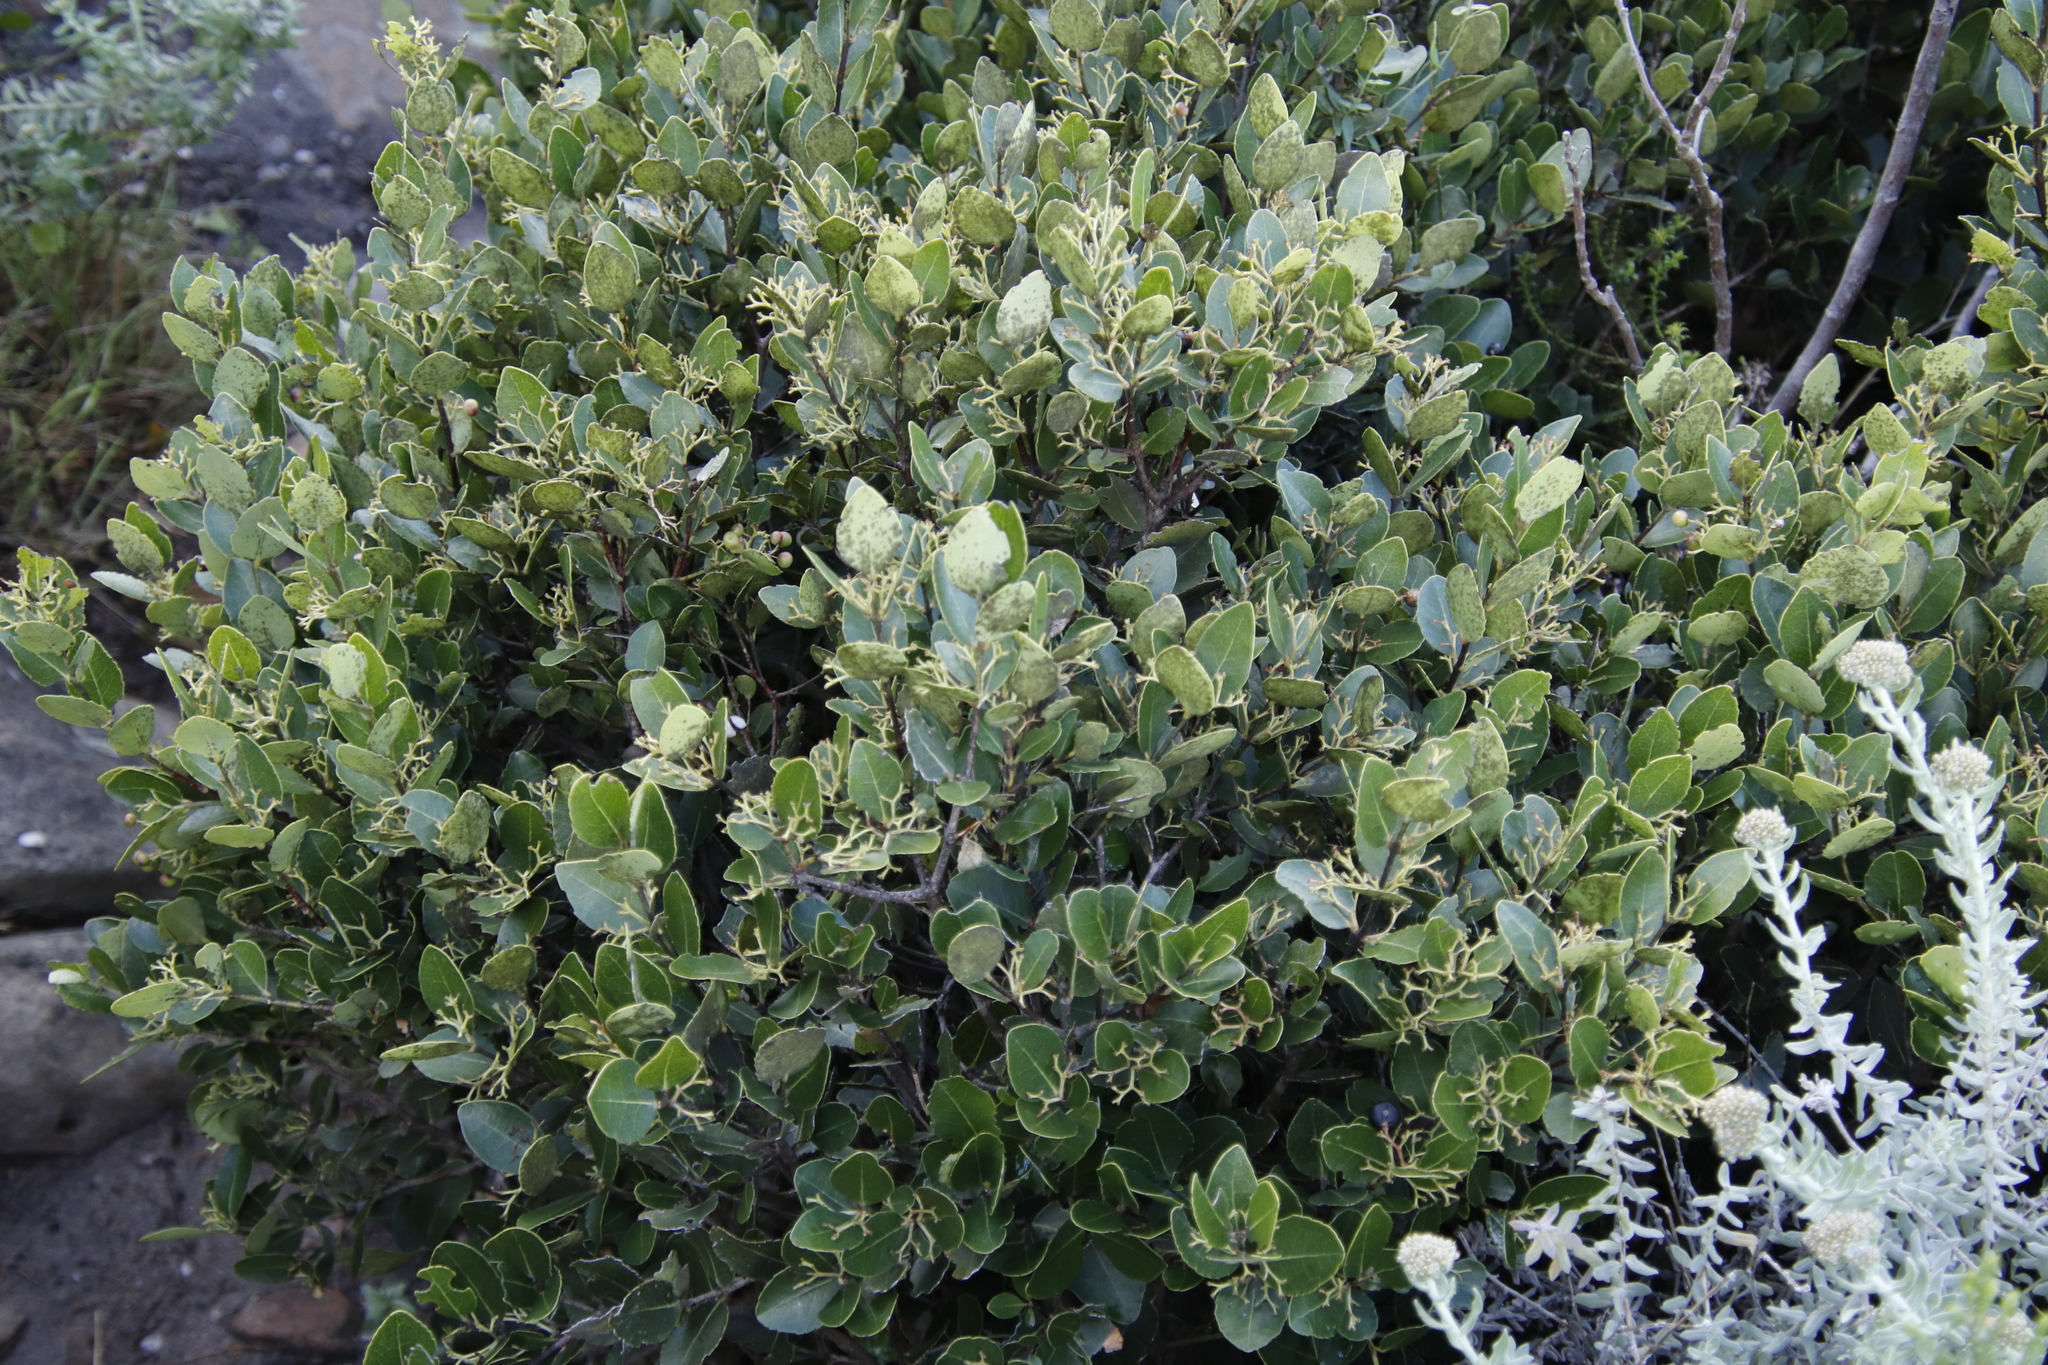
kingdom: Plantae
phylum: Tracheophyta
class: Magnoliopsida
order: Celastrales
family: Celastraceae
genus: Cassine
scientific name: Cassine peragua
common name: Cape saffron
